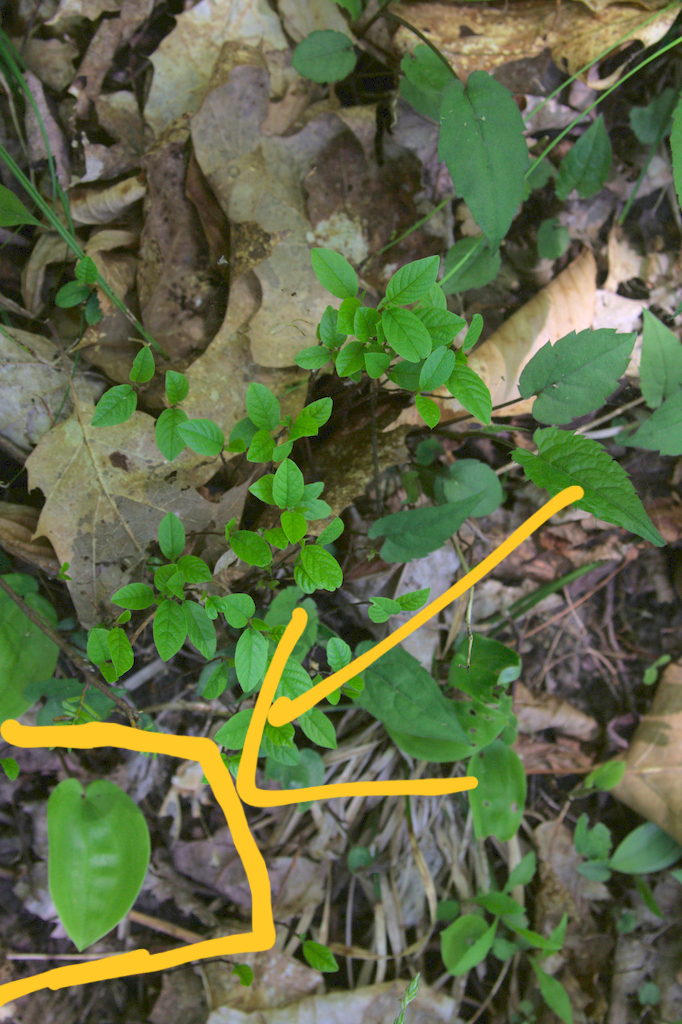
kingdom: Plantae
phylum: Tracheophyta
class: Liliopsida
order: Asparagales
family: Asparagaceae
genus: Maianthemum
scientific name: Maianthemum canadense
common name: False lily-of-the-valley
